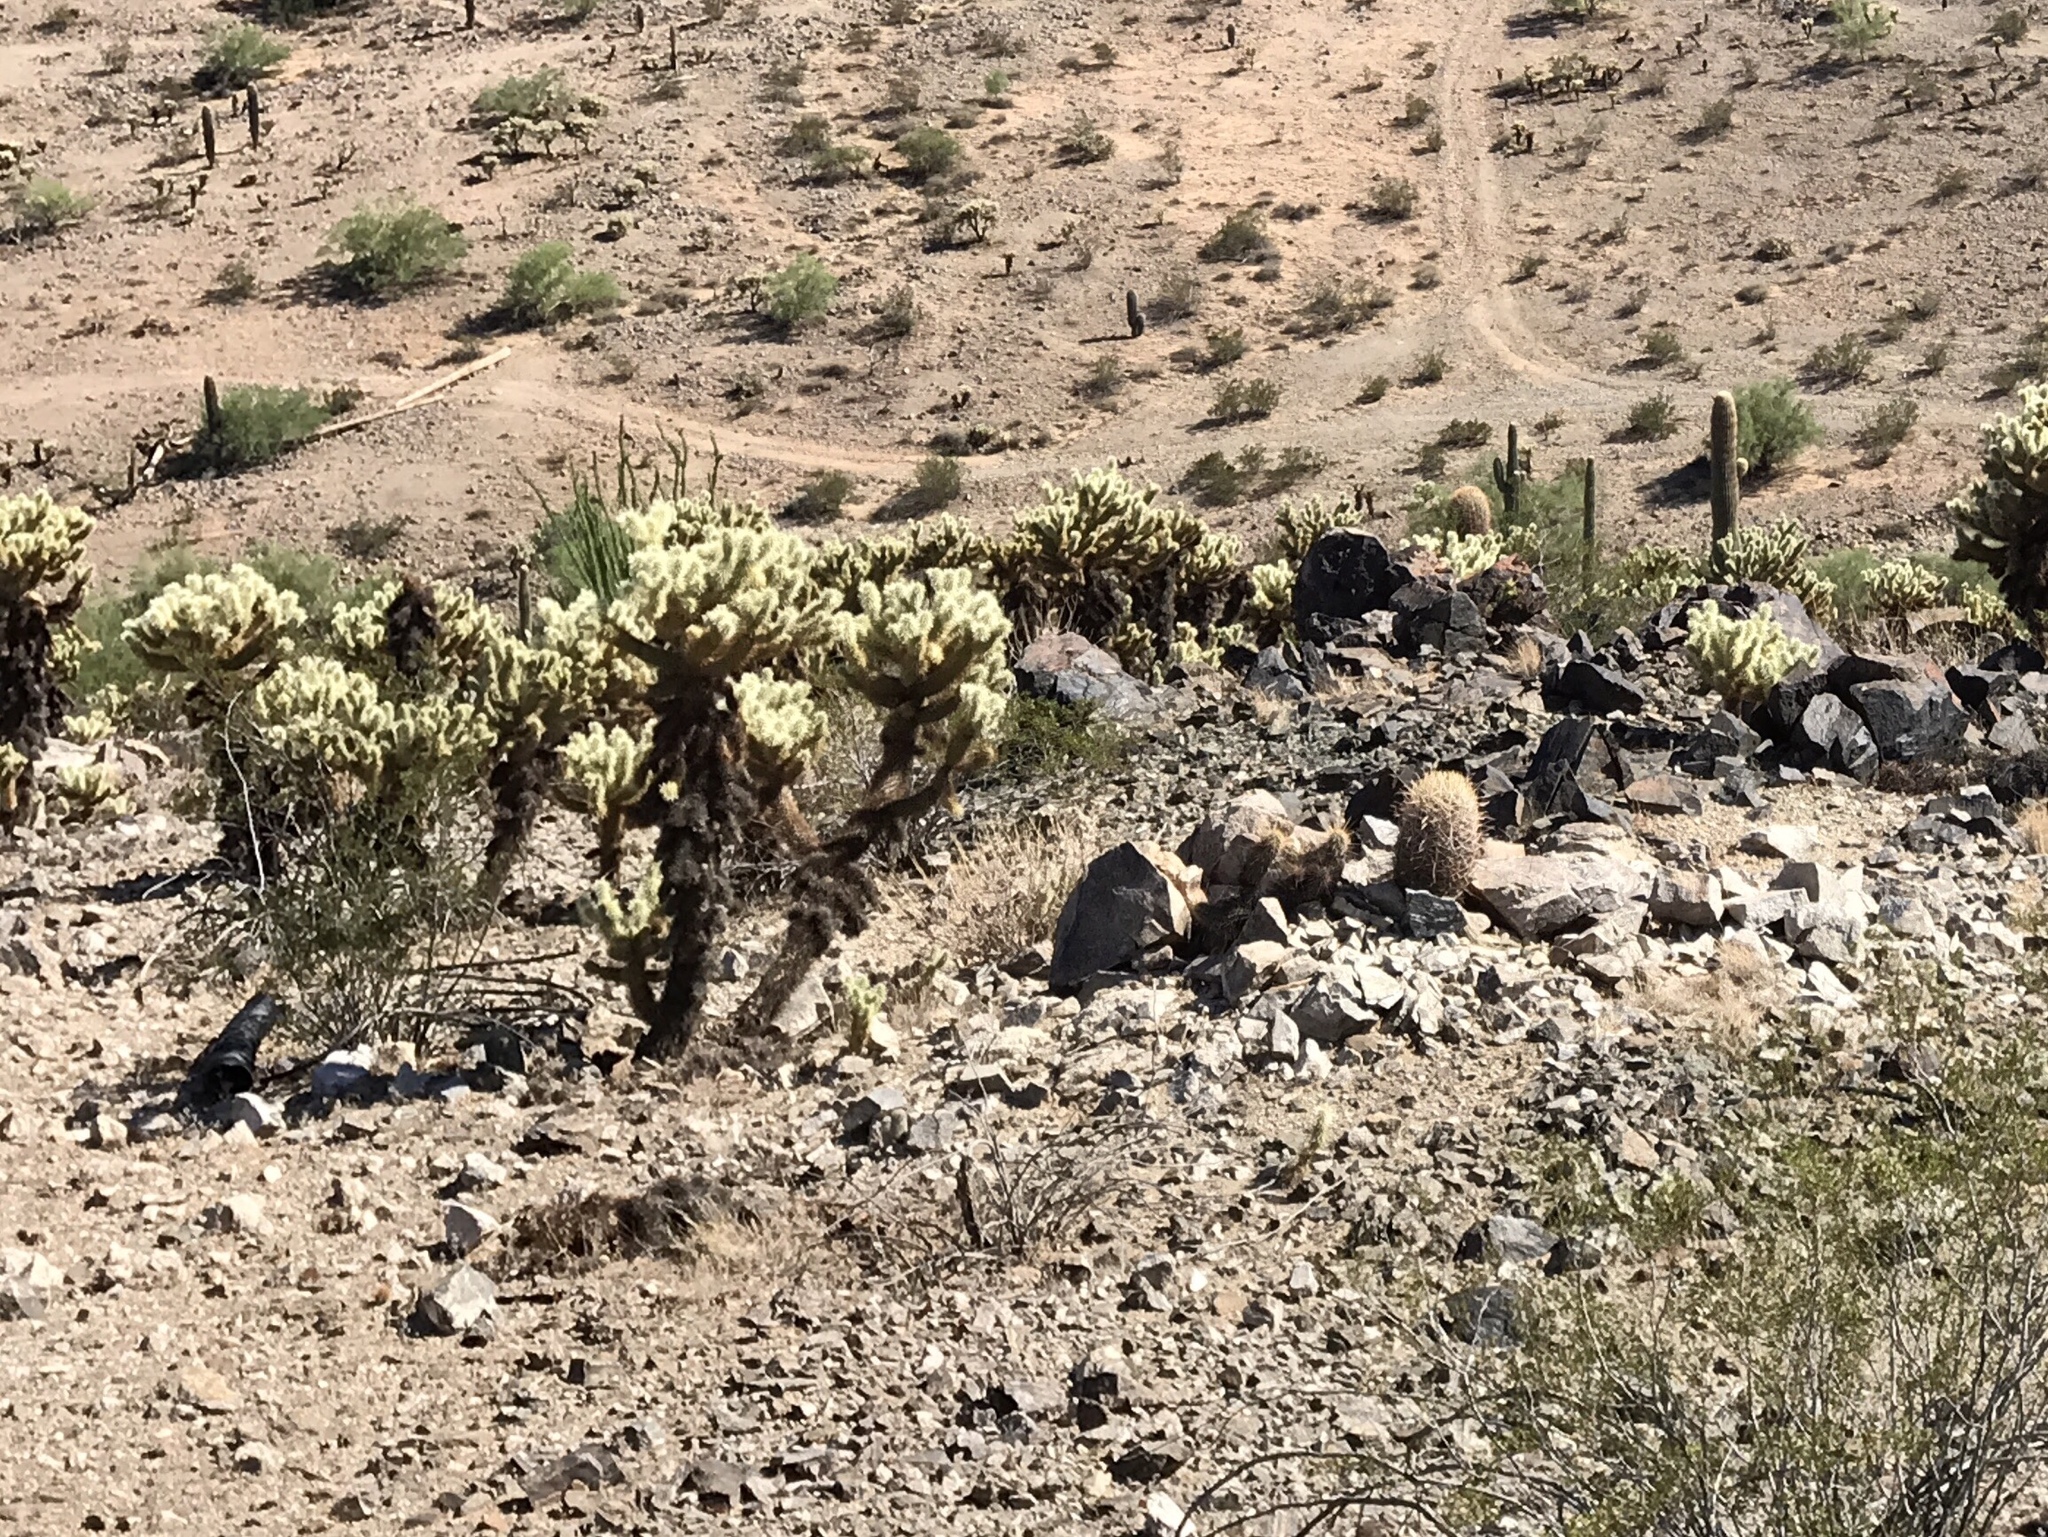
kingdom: Plantae
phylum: Tracheophyta
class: Magnoliopsida
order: Caryophyllales
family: Cactaceae
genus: Cylindropuntia
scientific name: Cylindropuntia fosbergii
